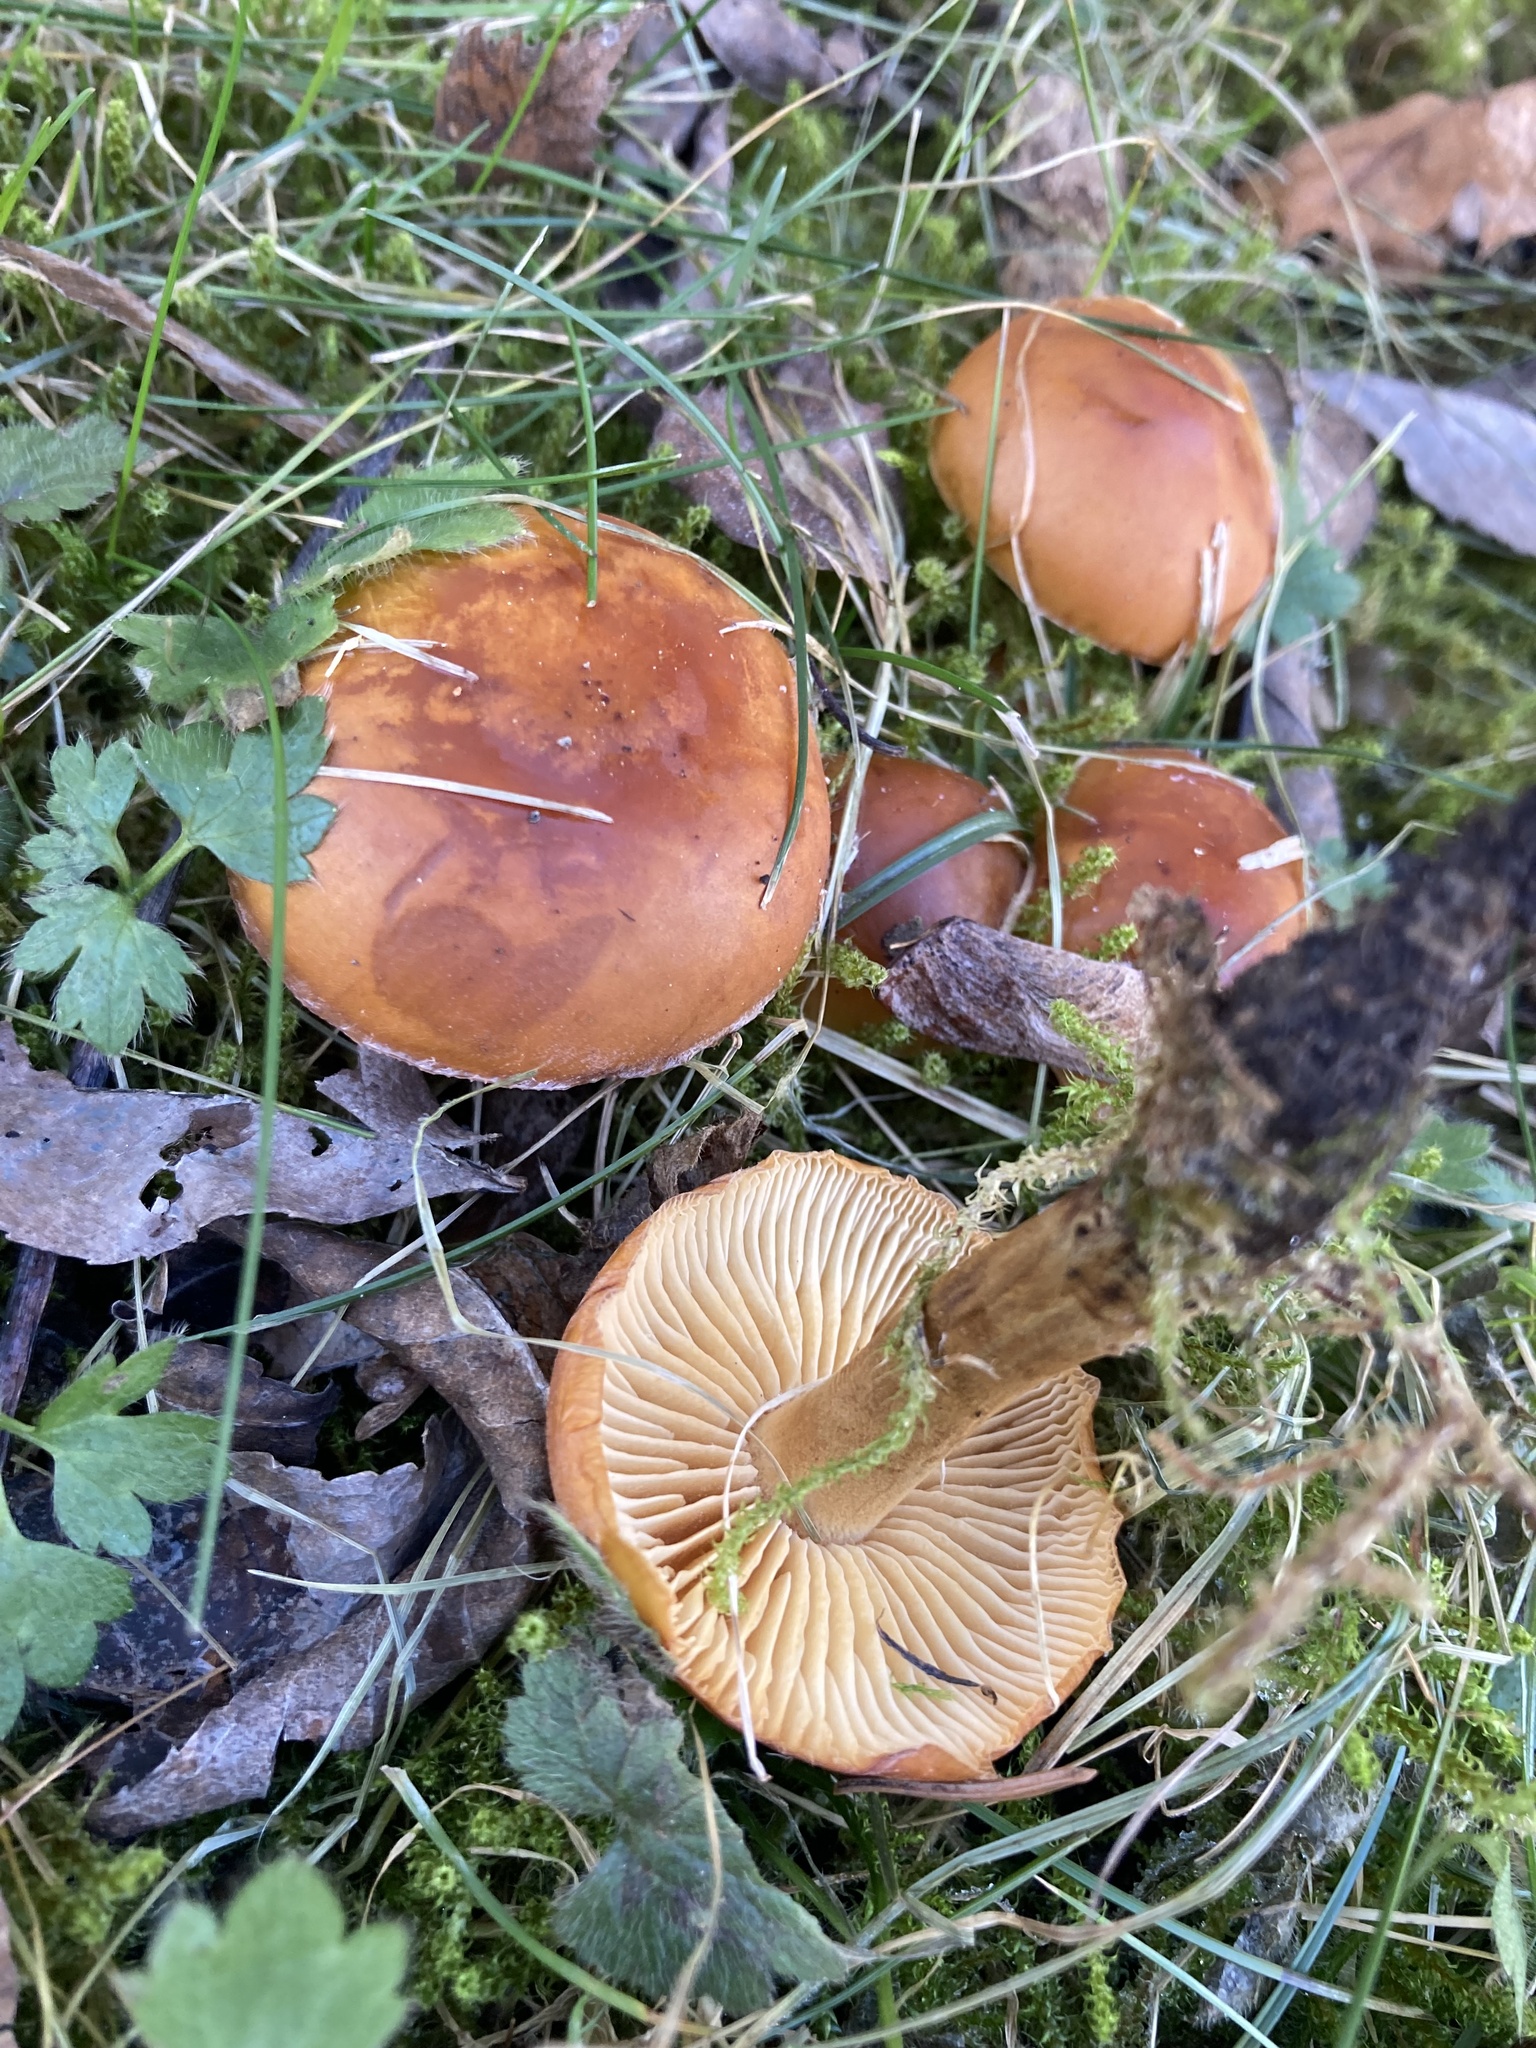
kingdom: Fungi
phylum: Basidiomycota
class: Agaricomycetes
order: Agaricales
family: Physalacriaceae
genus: Flammulina
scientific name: Flammulina
